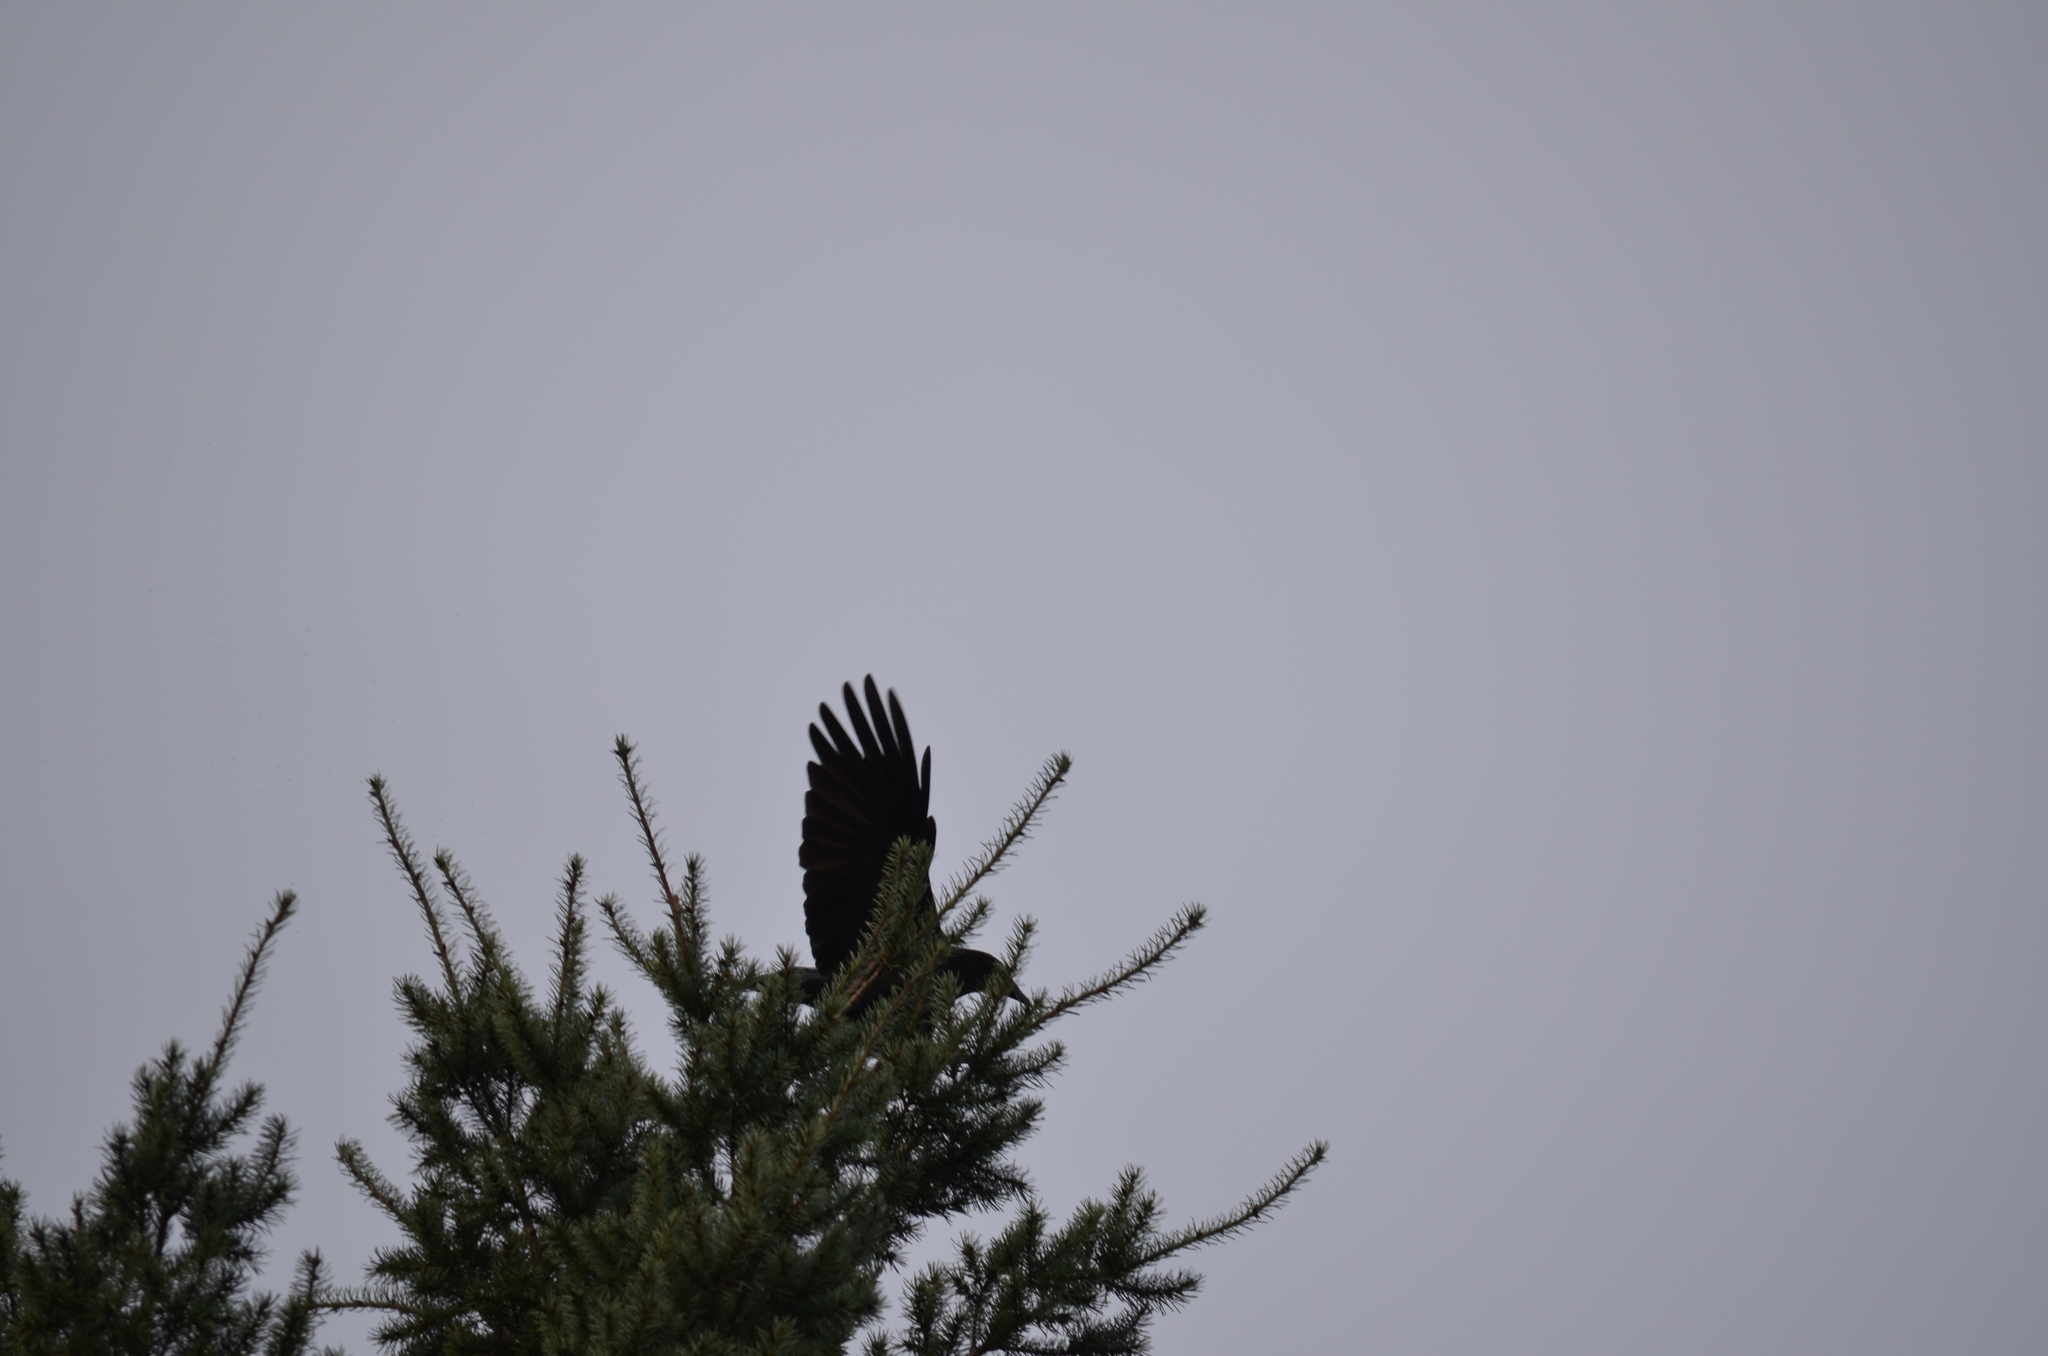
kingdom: Animalia
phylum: Chordata
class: Aves
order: Passeriformes
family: Corvidae
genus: Corvus
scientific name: Corvus brachyrhynchos
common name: American crow
